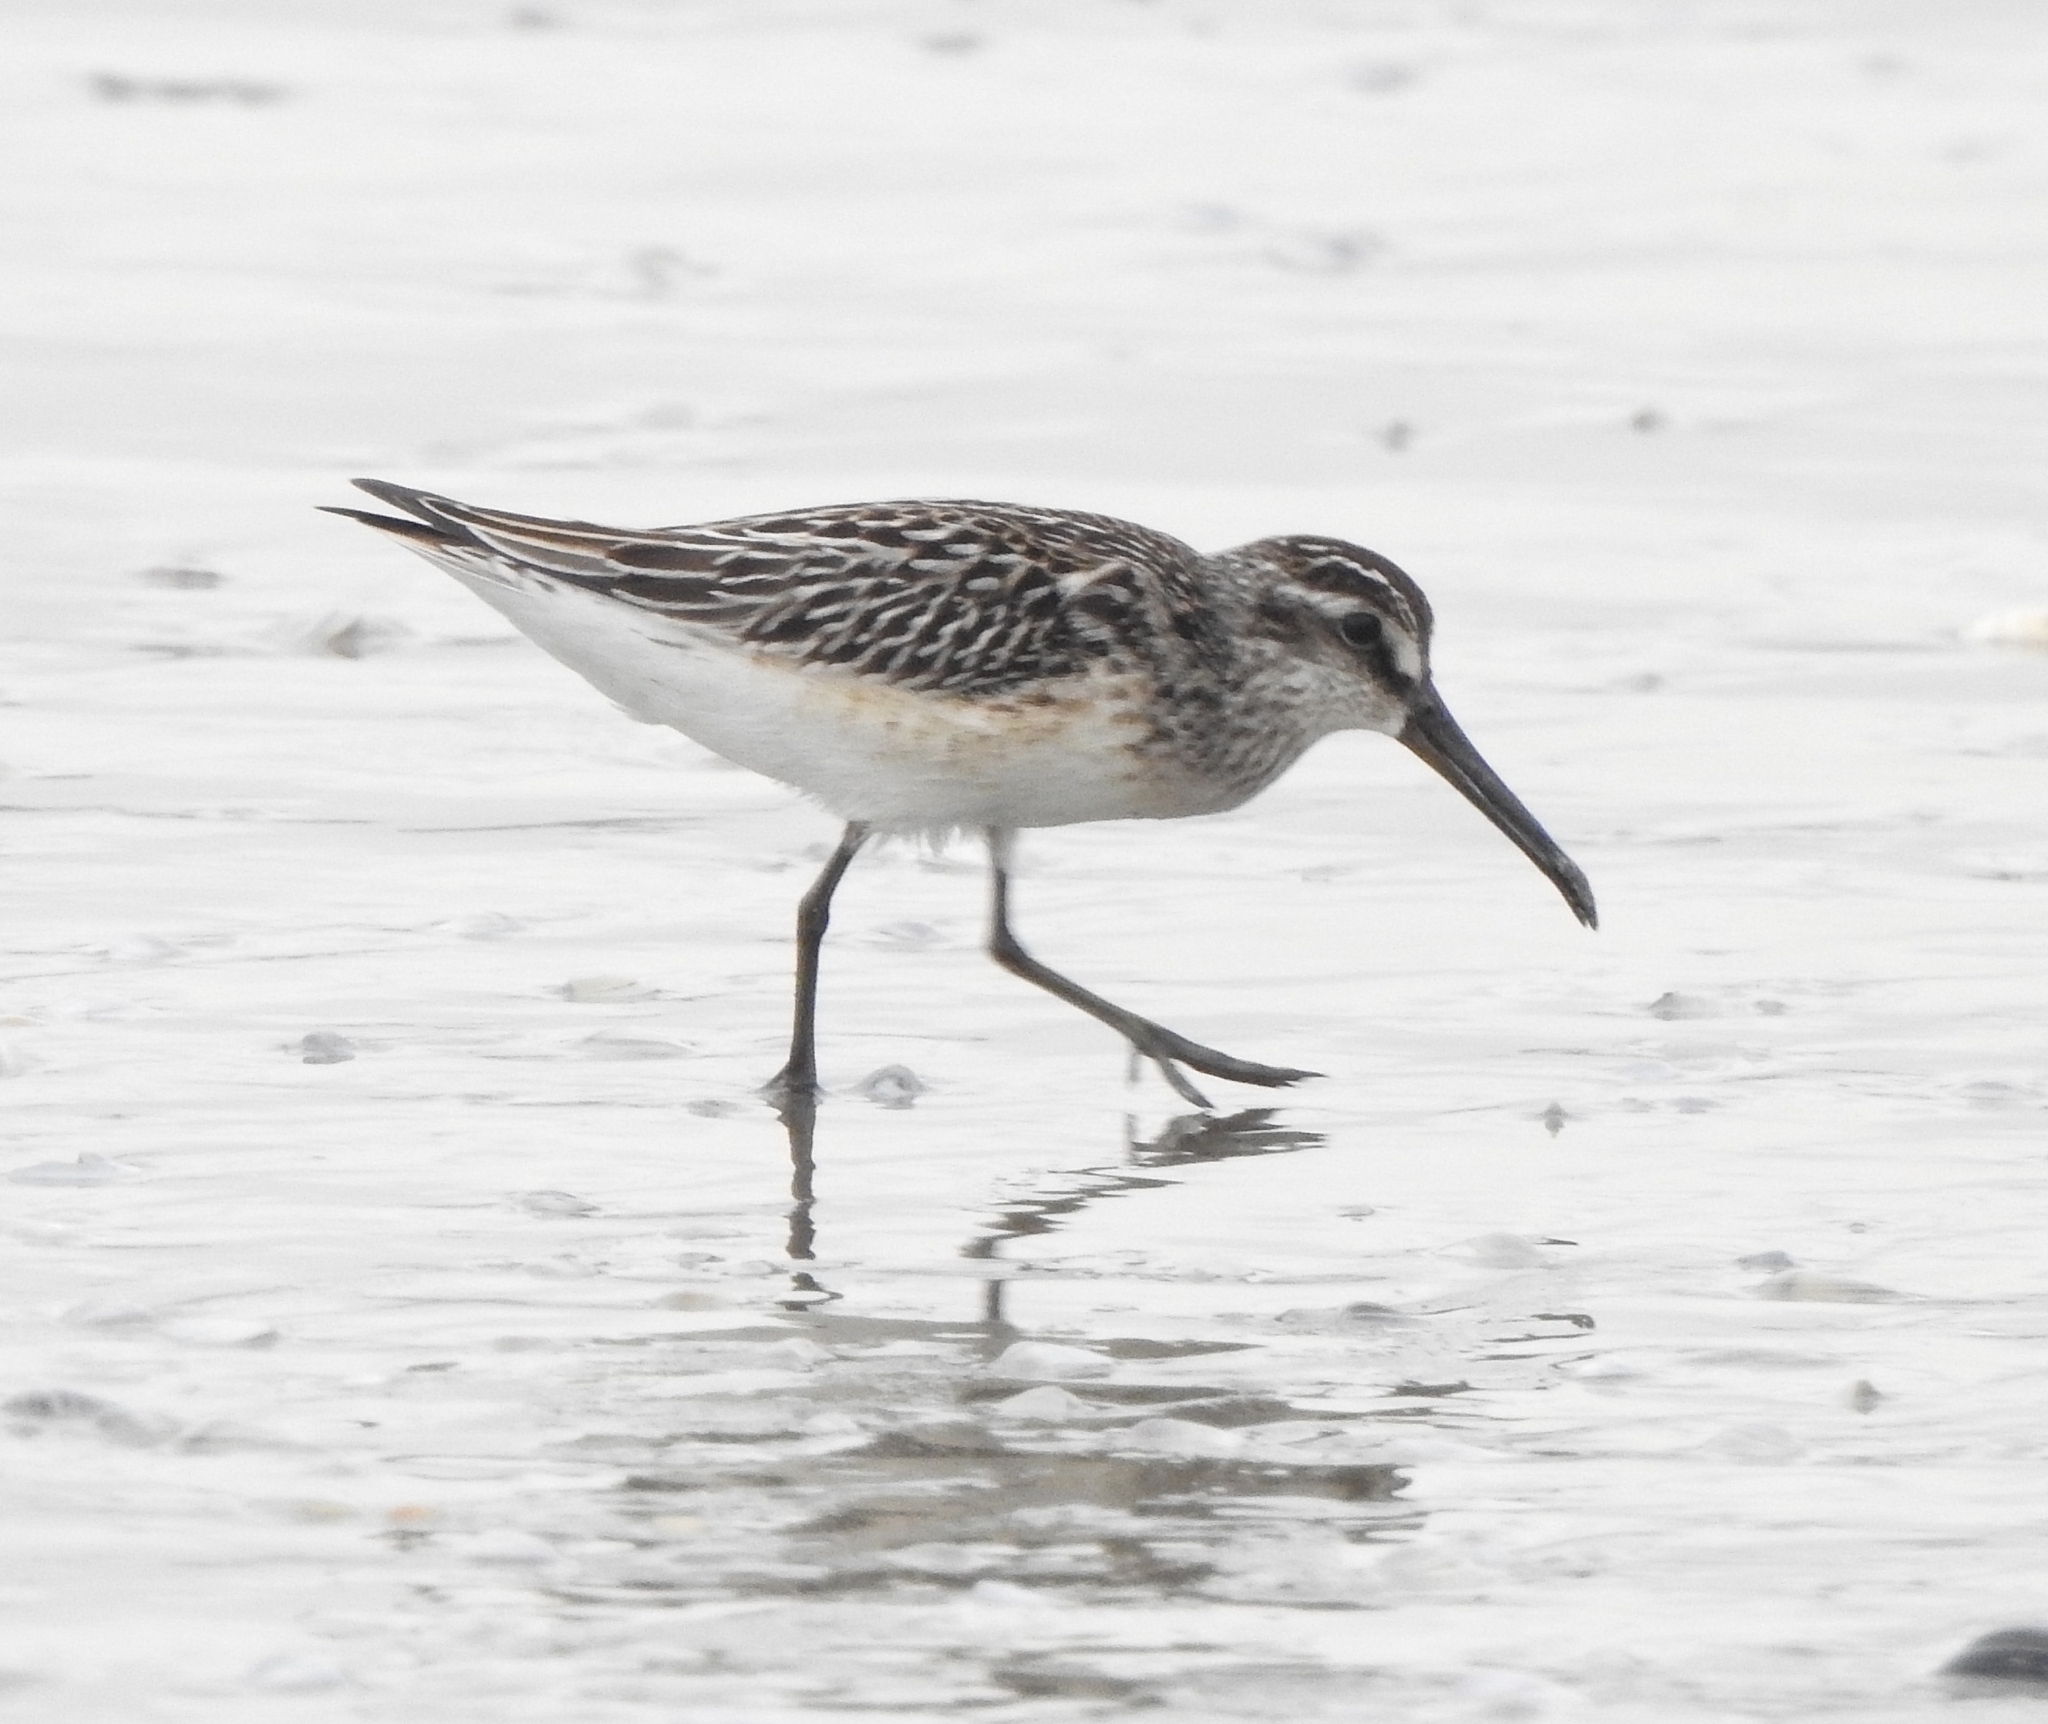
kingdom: Animalia
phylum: Chordata
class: Aves
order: Charadriiformes
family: Scolopacidae
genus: Calidris
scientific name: Calidris falcinellus
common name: Broad-billed sandpiper
